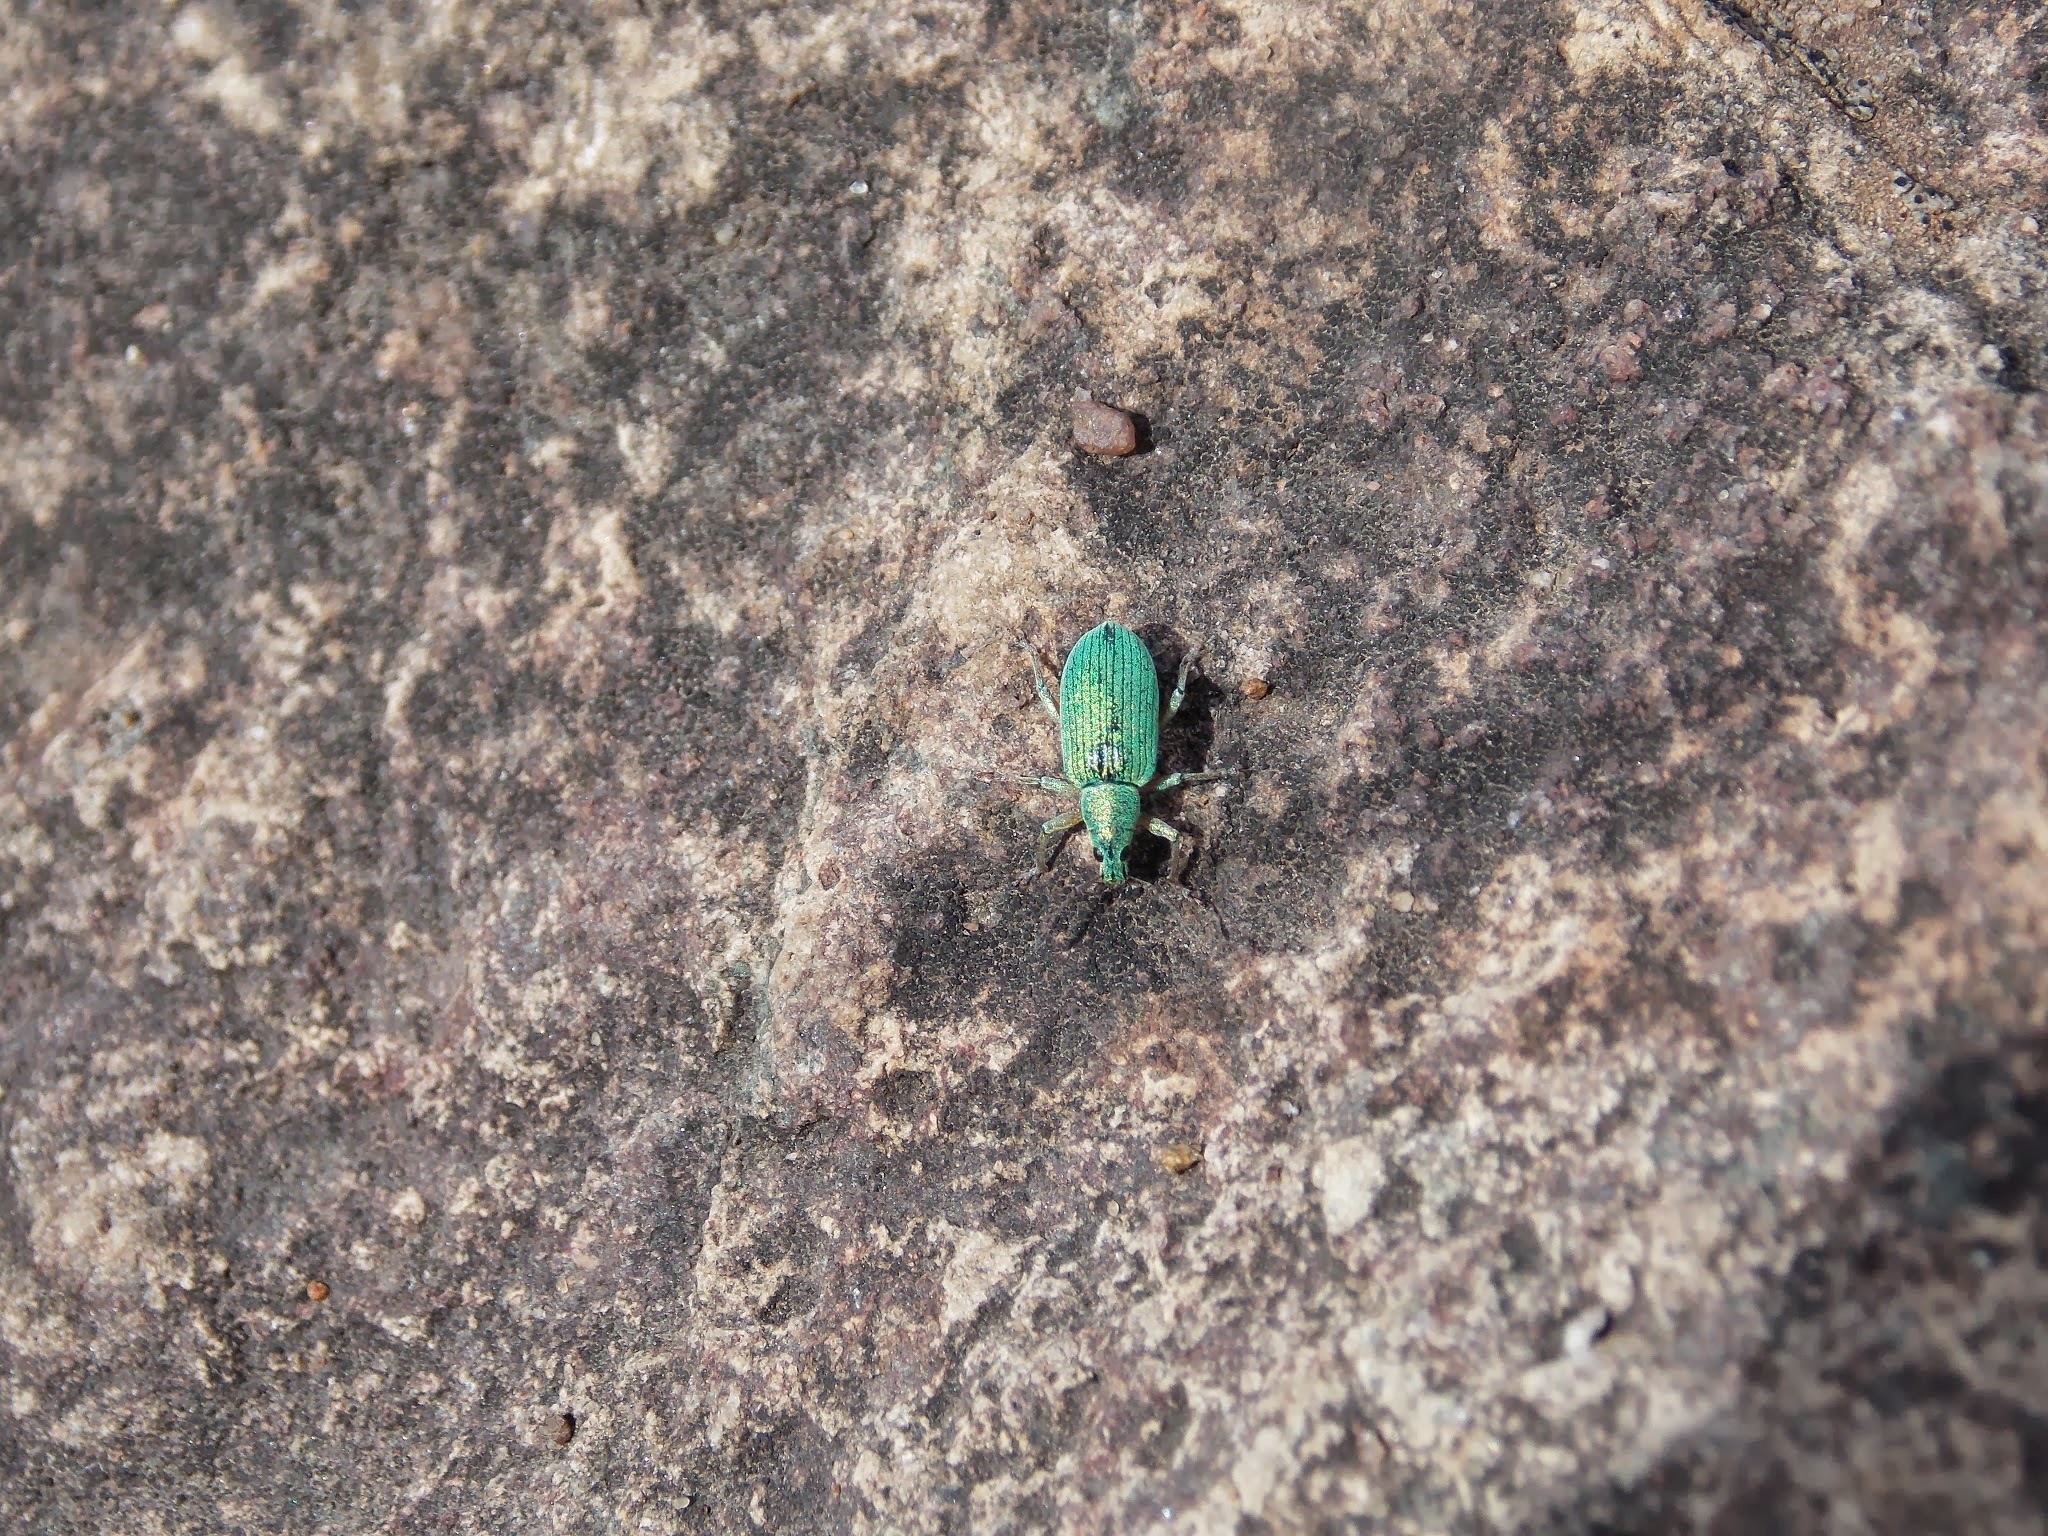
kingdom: Animalia
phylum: Arthropoda
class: Insecta
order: Coleoptera
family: Curculionidae
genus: Polydrusus
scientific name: Polydrusus formosus
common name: Weevil
